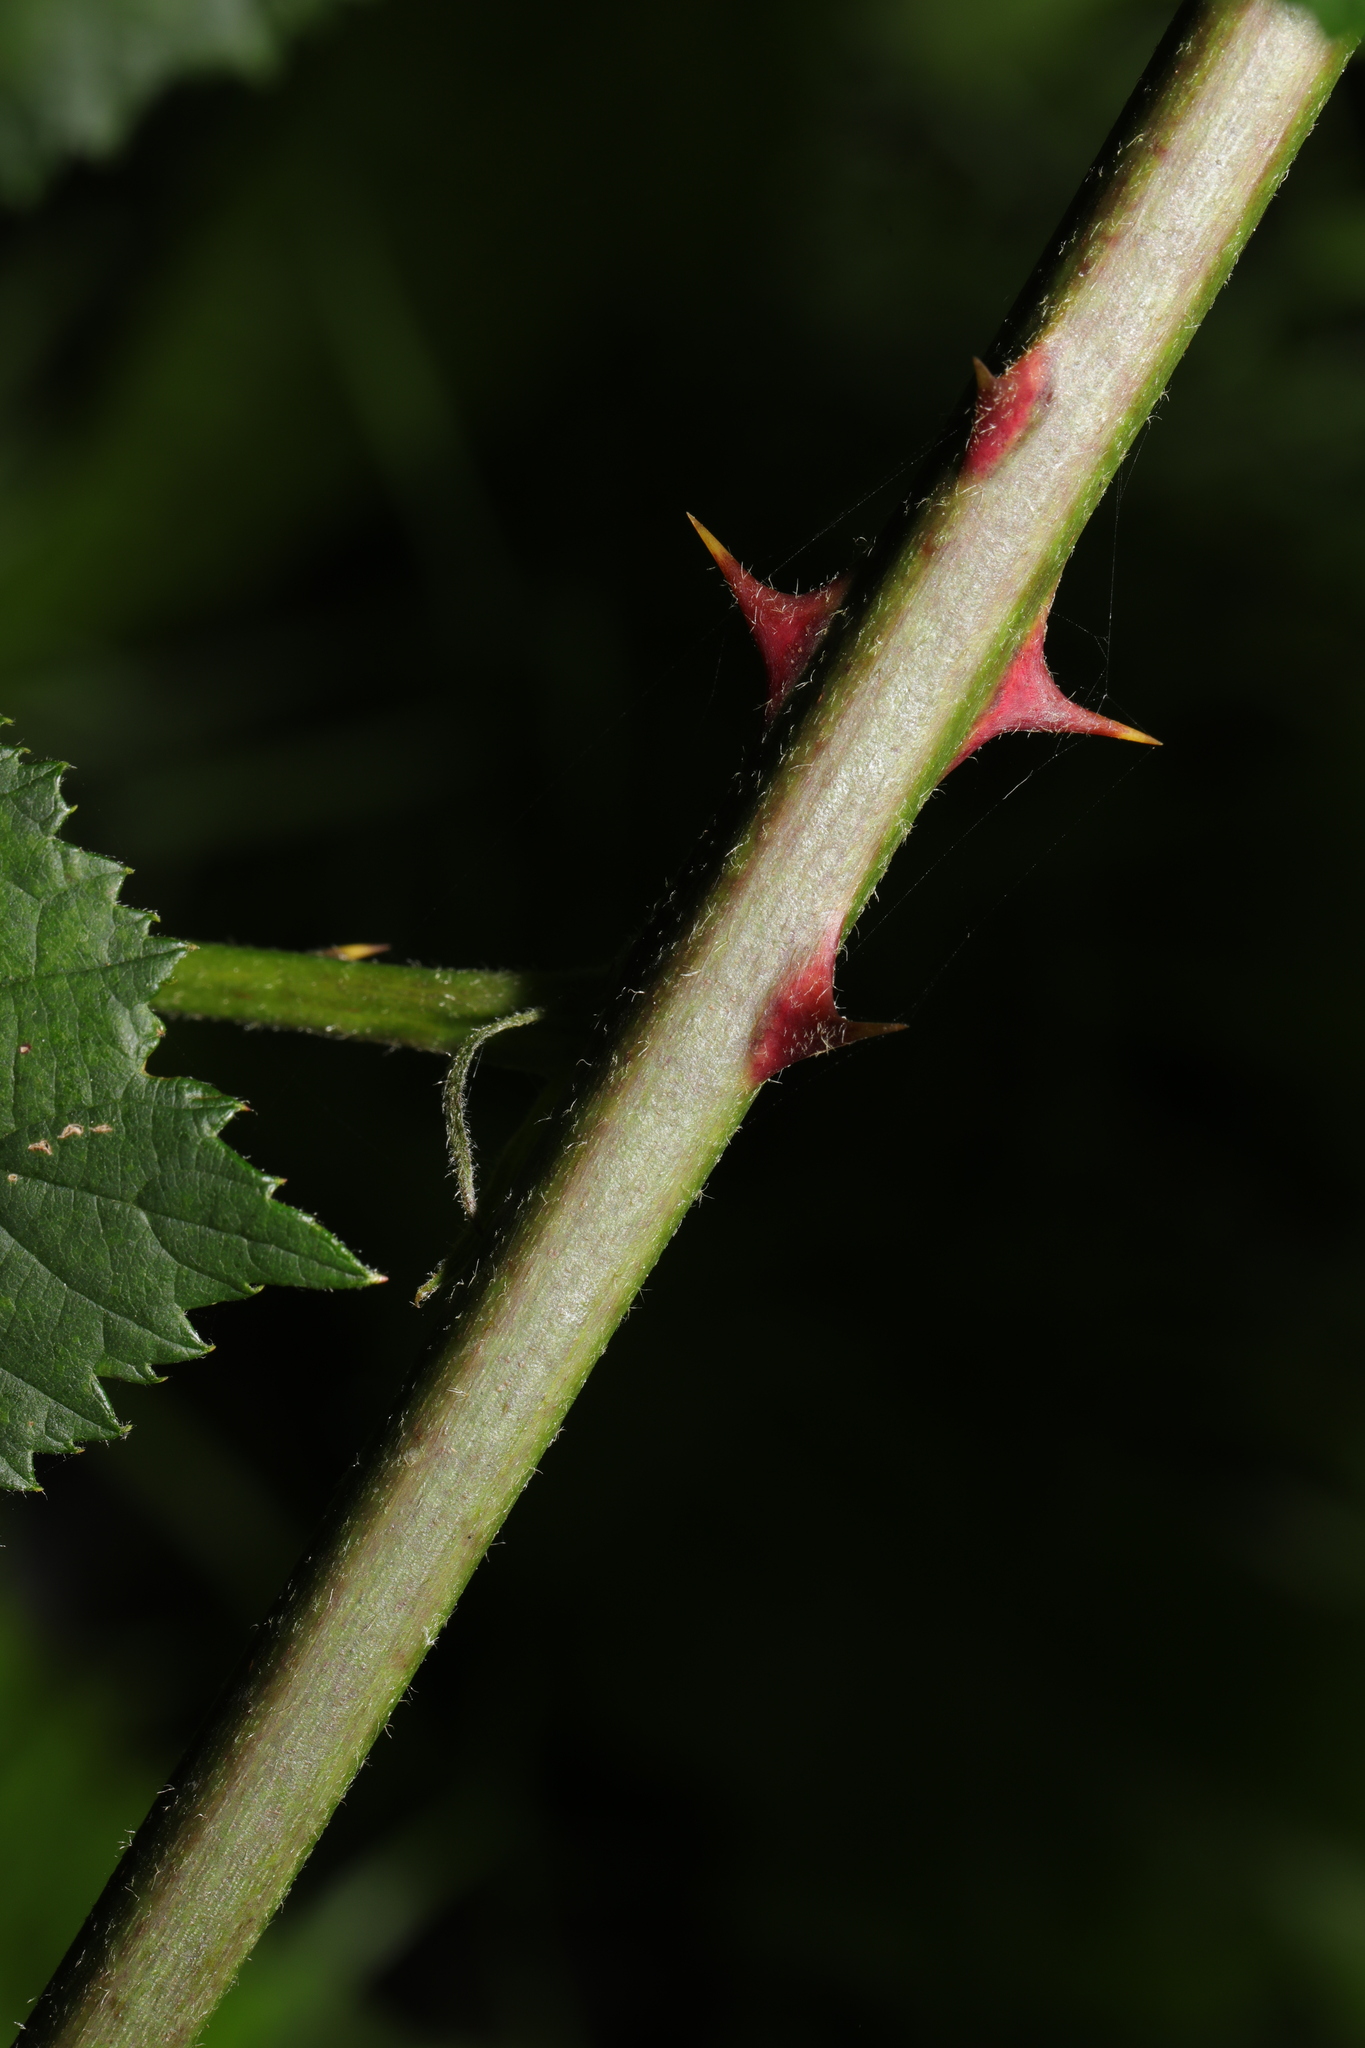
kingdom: Plantae
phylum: Tracheophyta
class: Magnoliopsida
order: Rosales
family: Rosaceae
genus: Rubus
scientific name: Rubus fruticosus
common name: Blackberry, bramble
